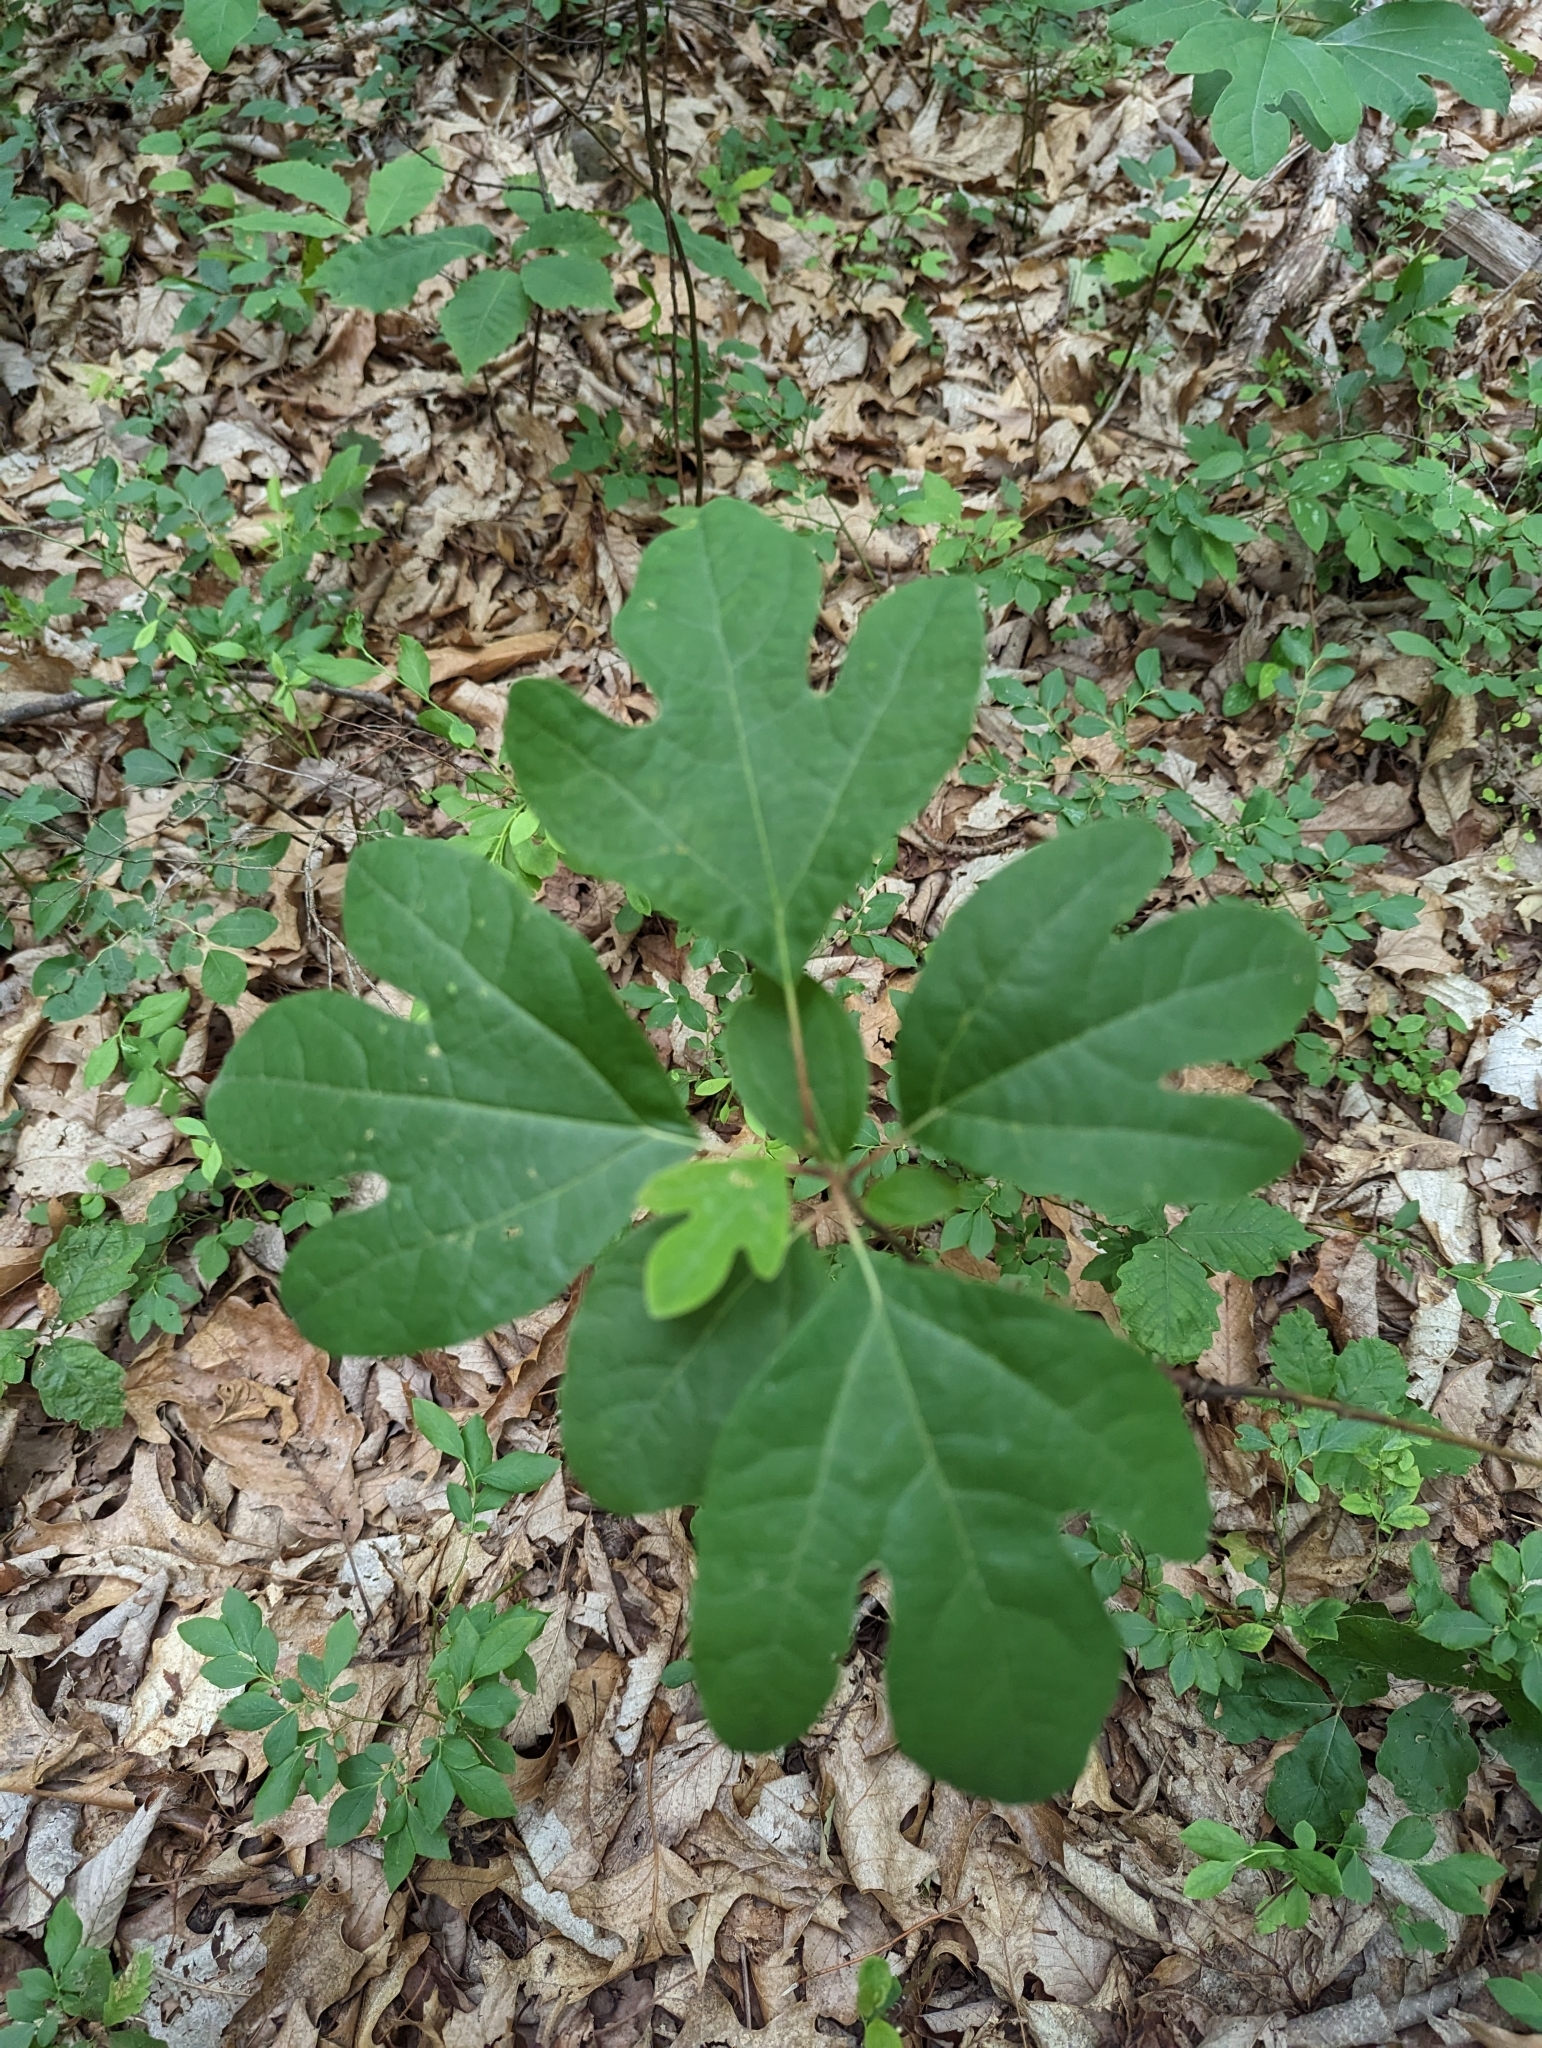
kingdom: Plantae
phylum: Tracheophyta
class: Magnoliopsida
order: Laurales
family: Lauraceae
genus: Sassafras
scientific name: Sassafras albidum
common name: Sassafras
